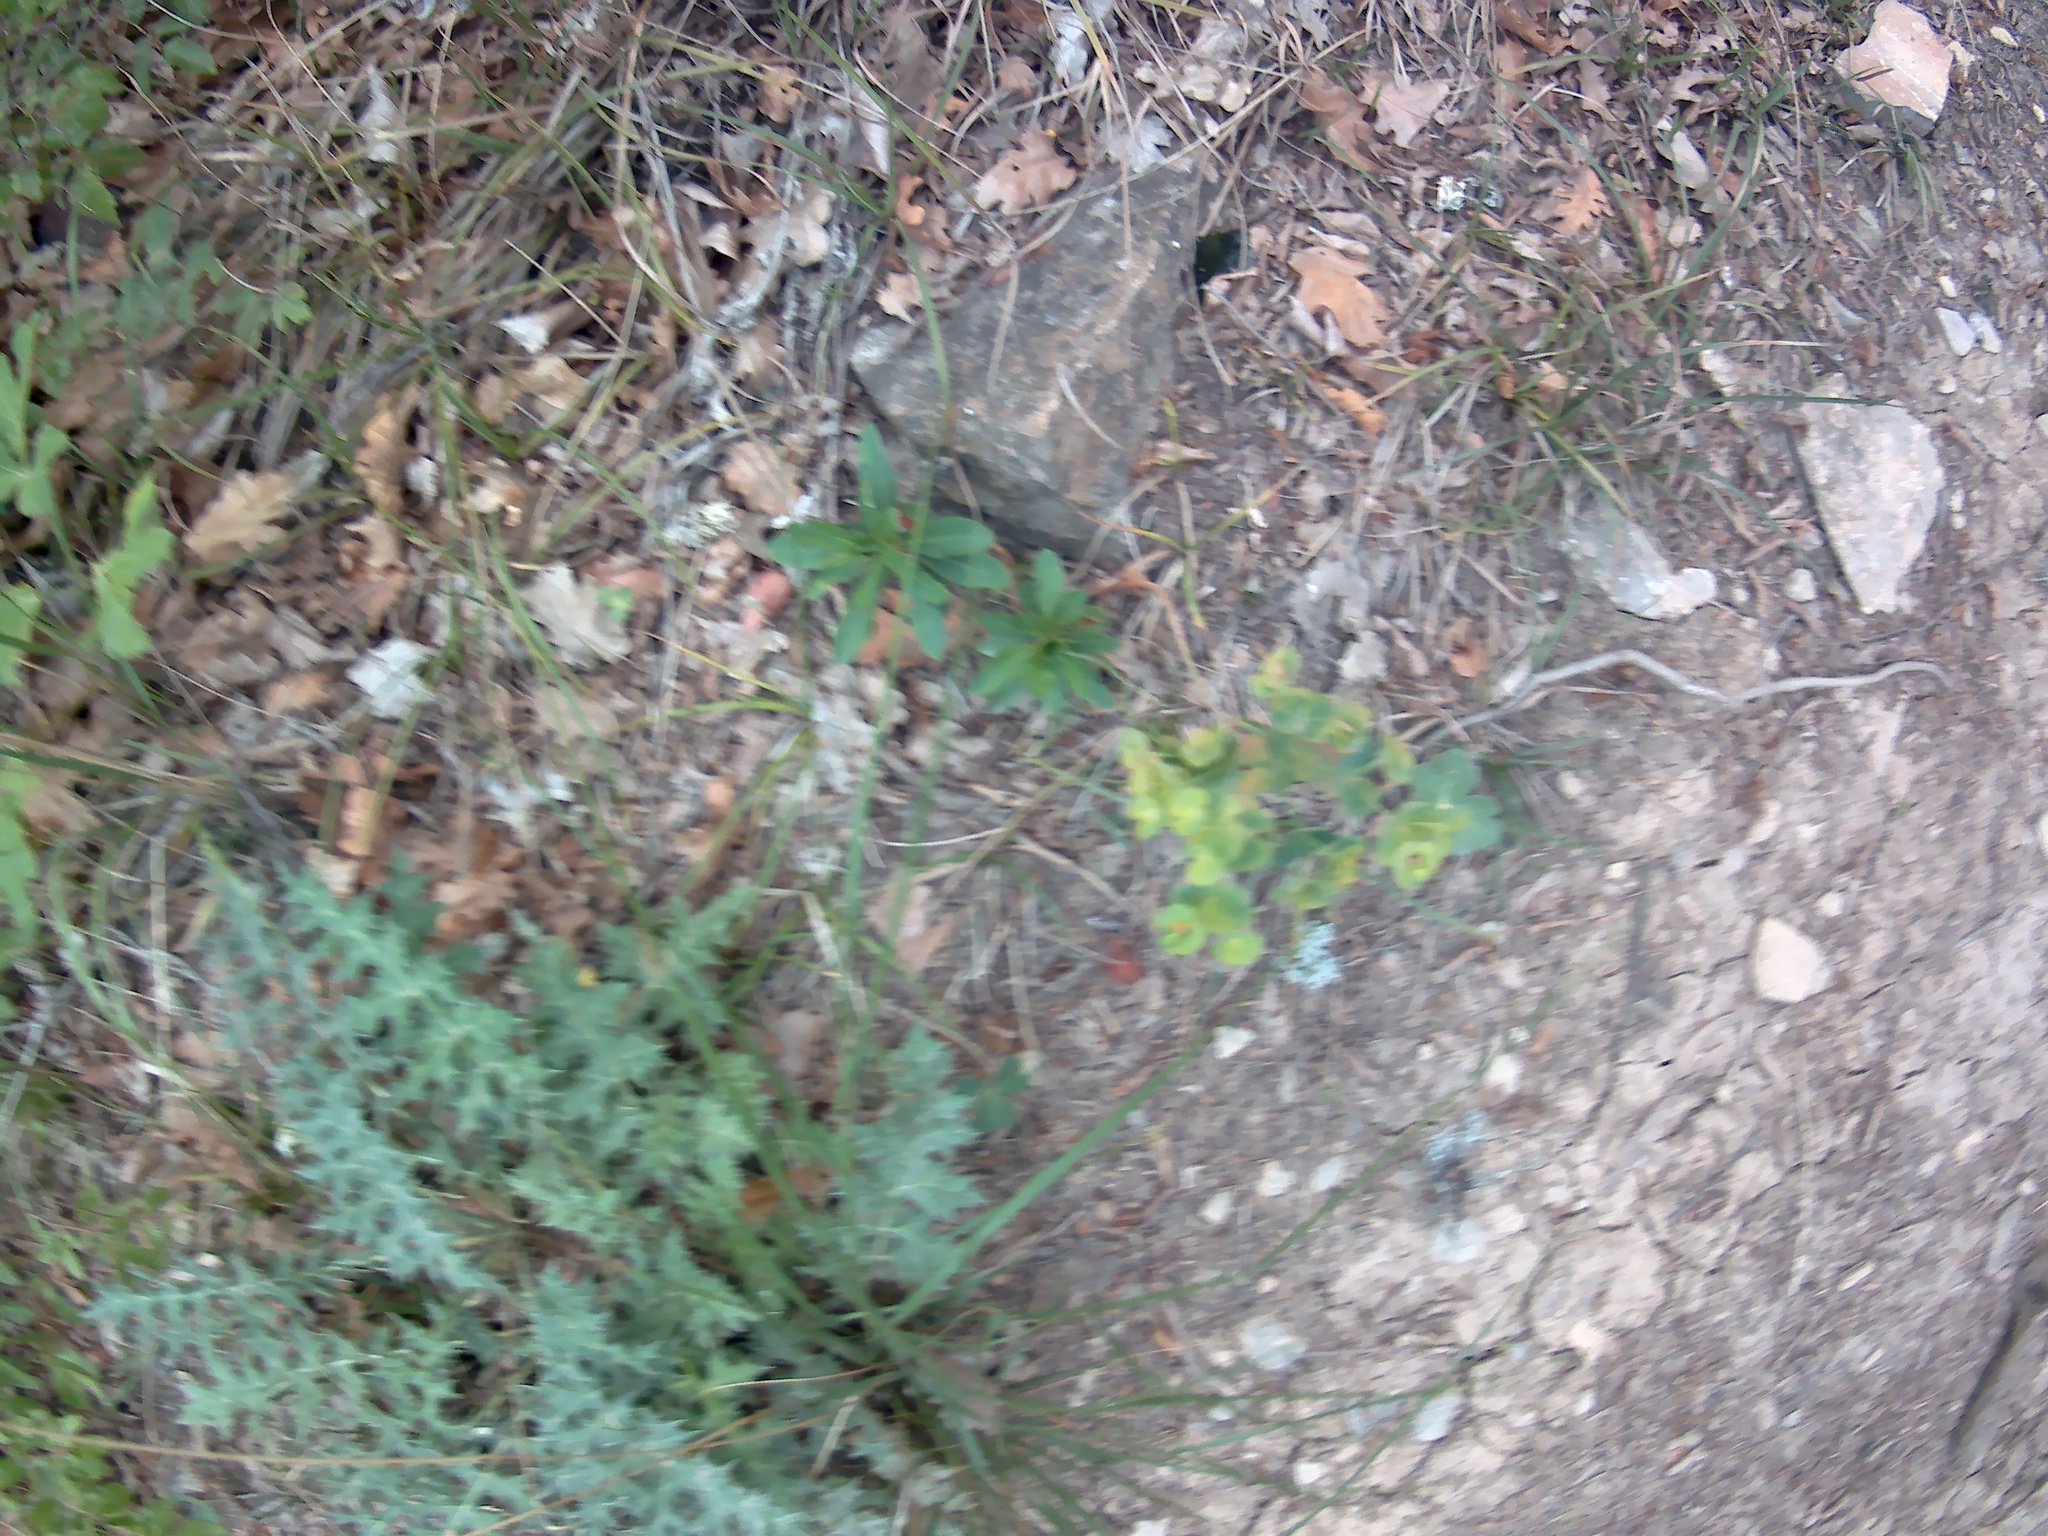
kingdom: Plantae
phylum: Tracheophyta
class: Magnoliopsida
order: Malpighiales
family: Euphorbiaceae
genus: Euphorbia
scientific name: Euphorbia amygdaloides
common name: Wood spurge
